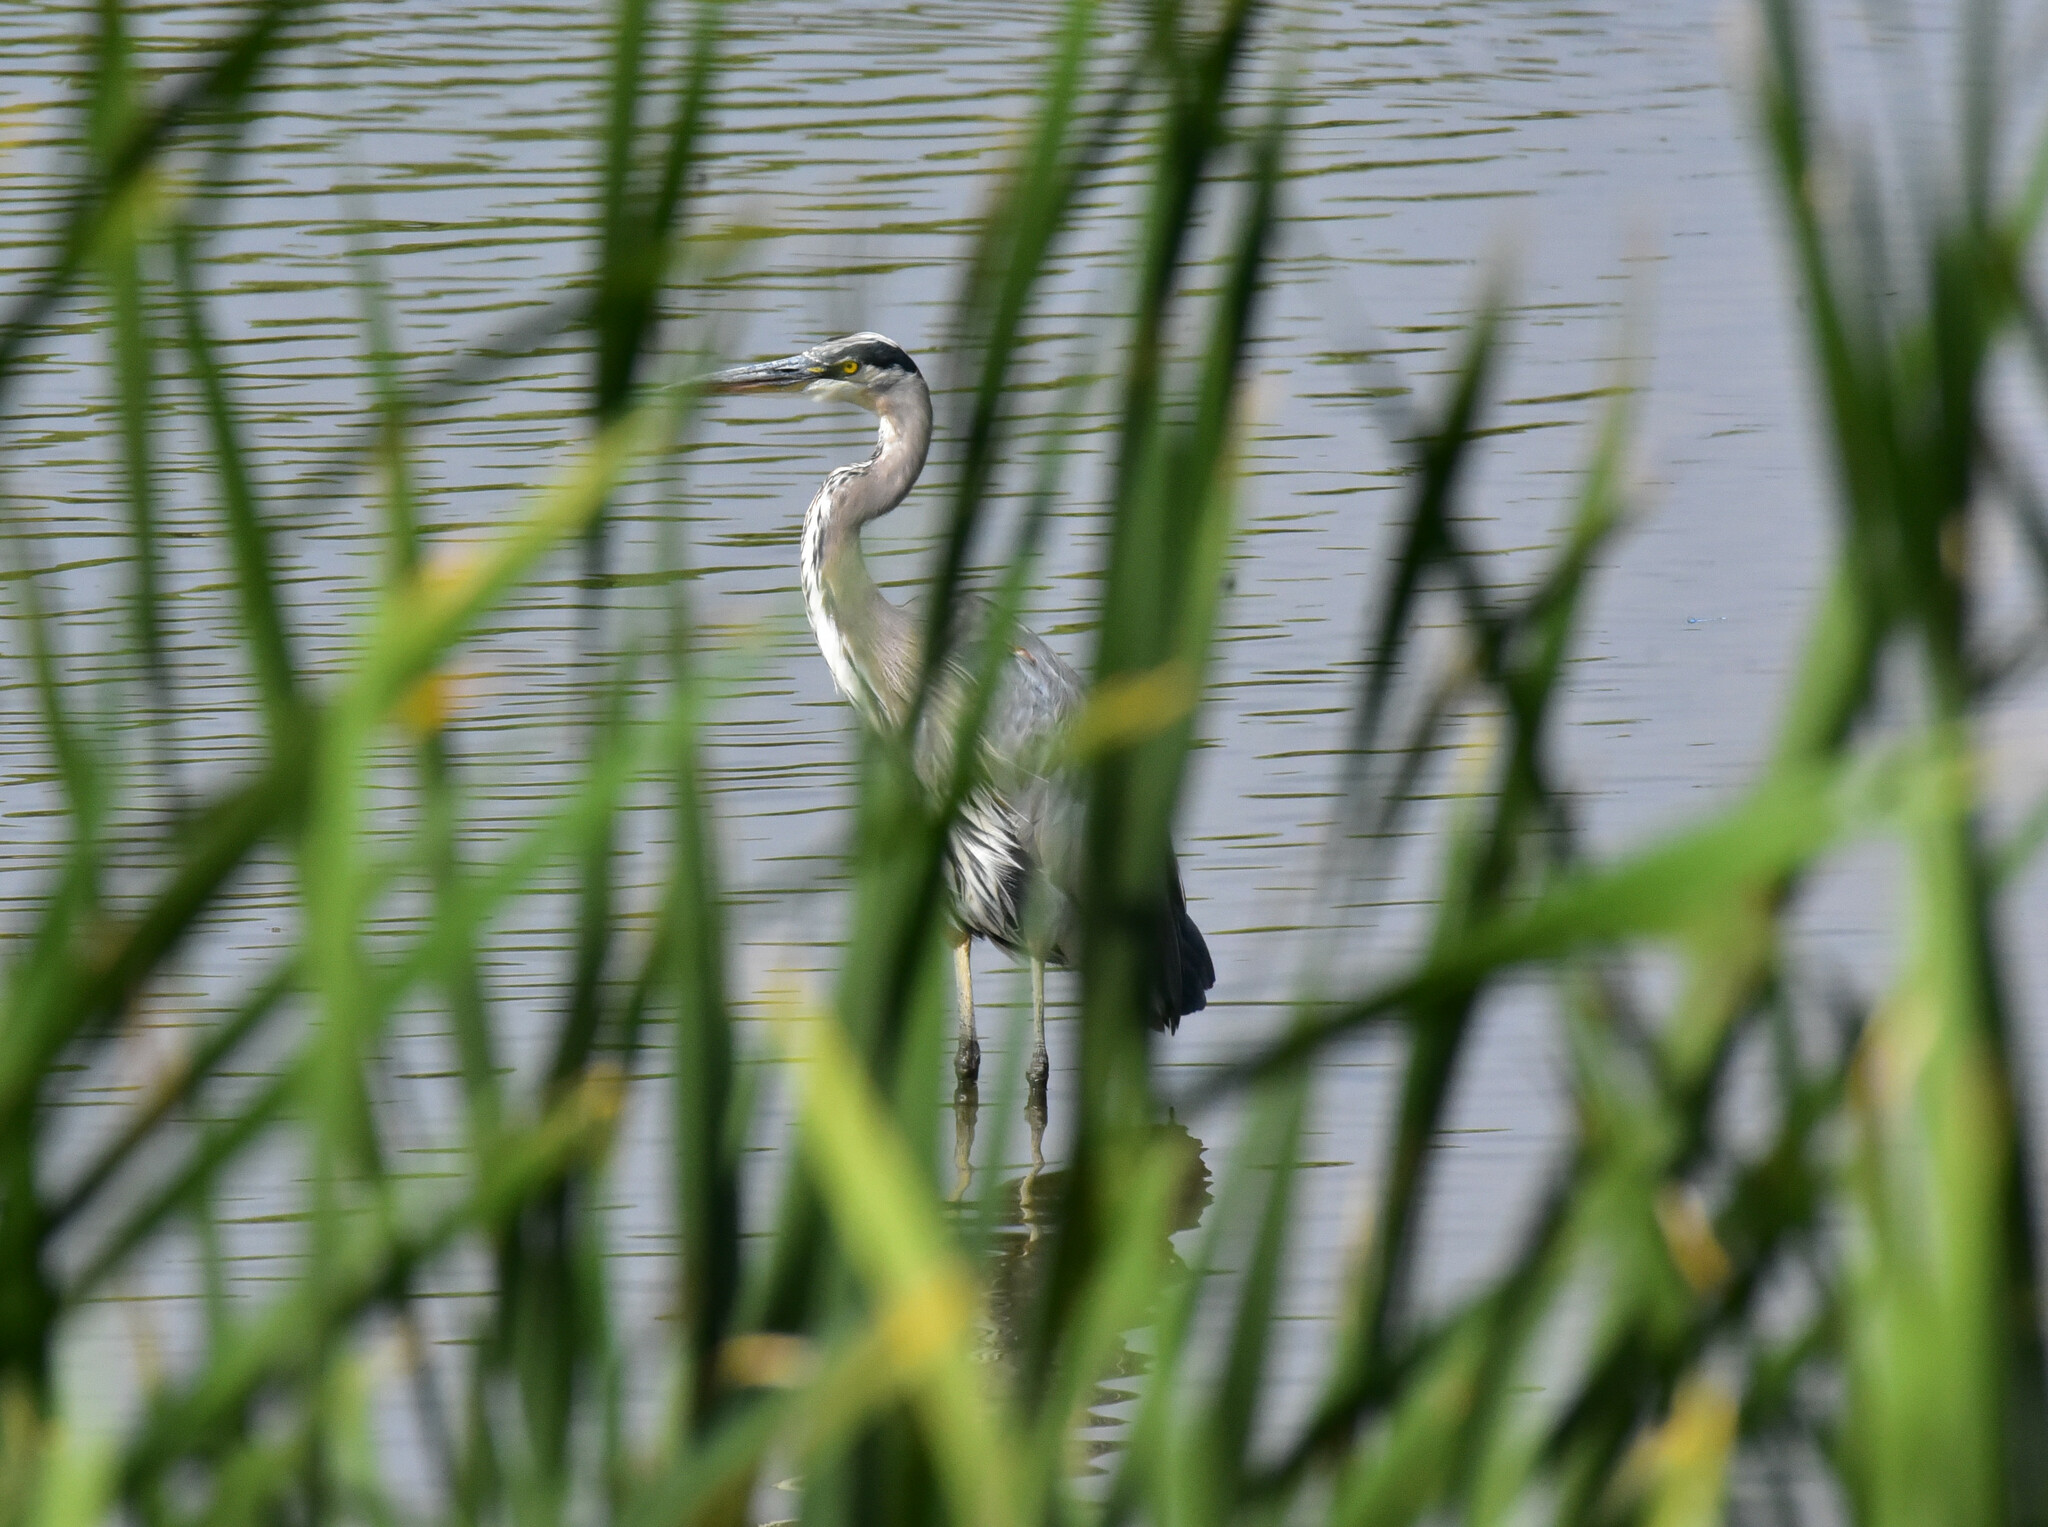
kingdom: Animalia
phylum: Chordata
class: Aves
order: Pelecaniformes
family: Ardeidae
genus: Ardea
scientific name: Ardea herodias
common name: Great blue heron
